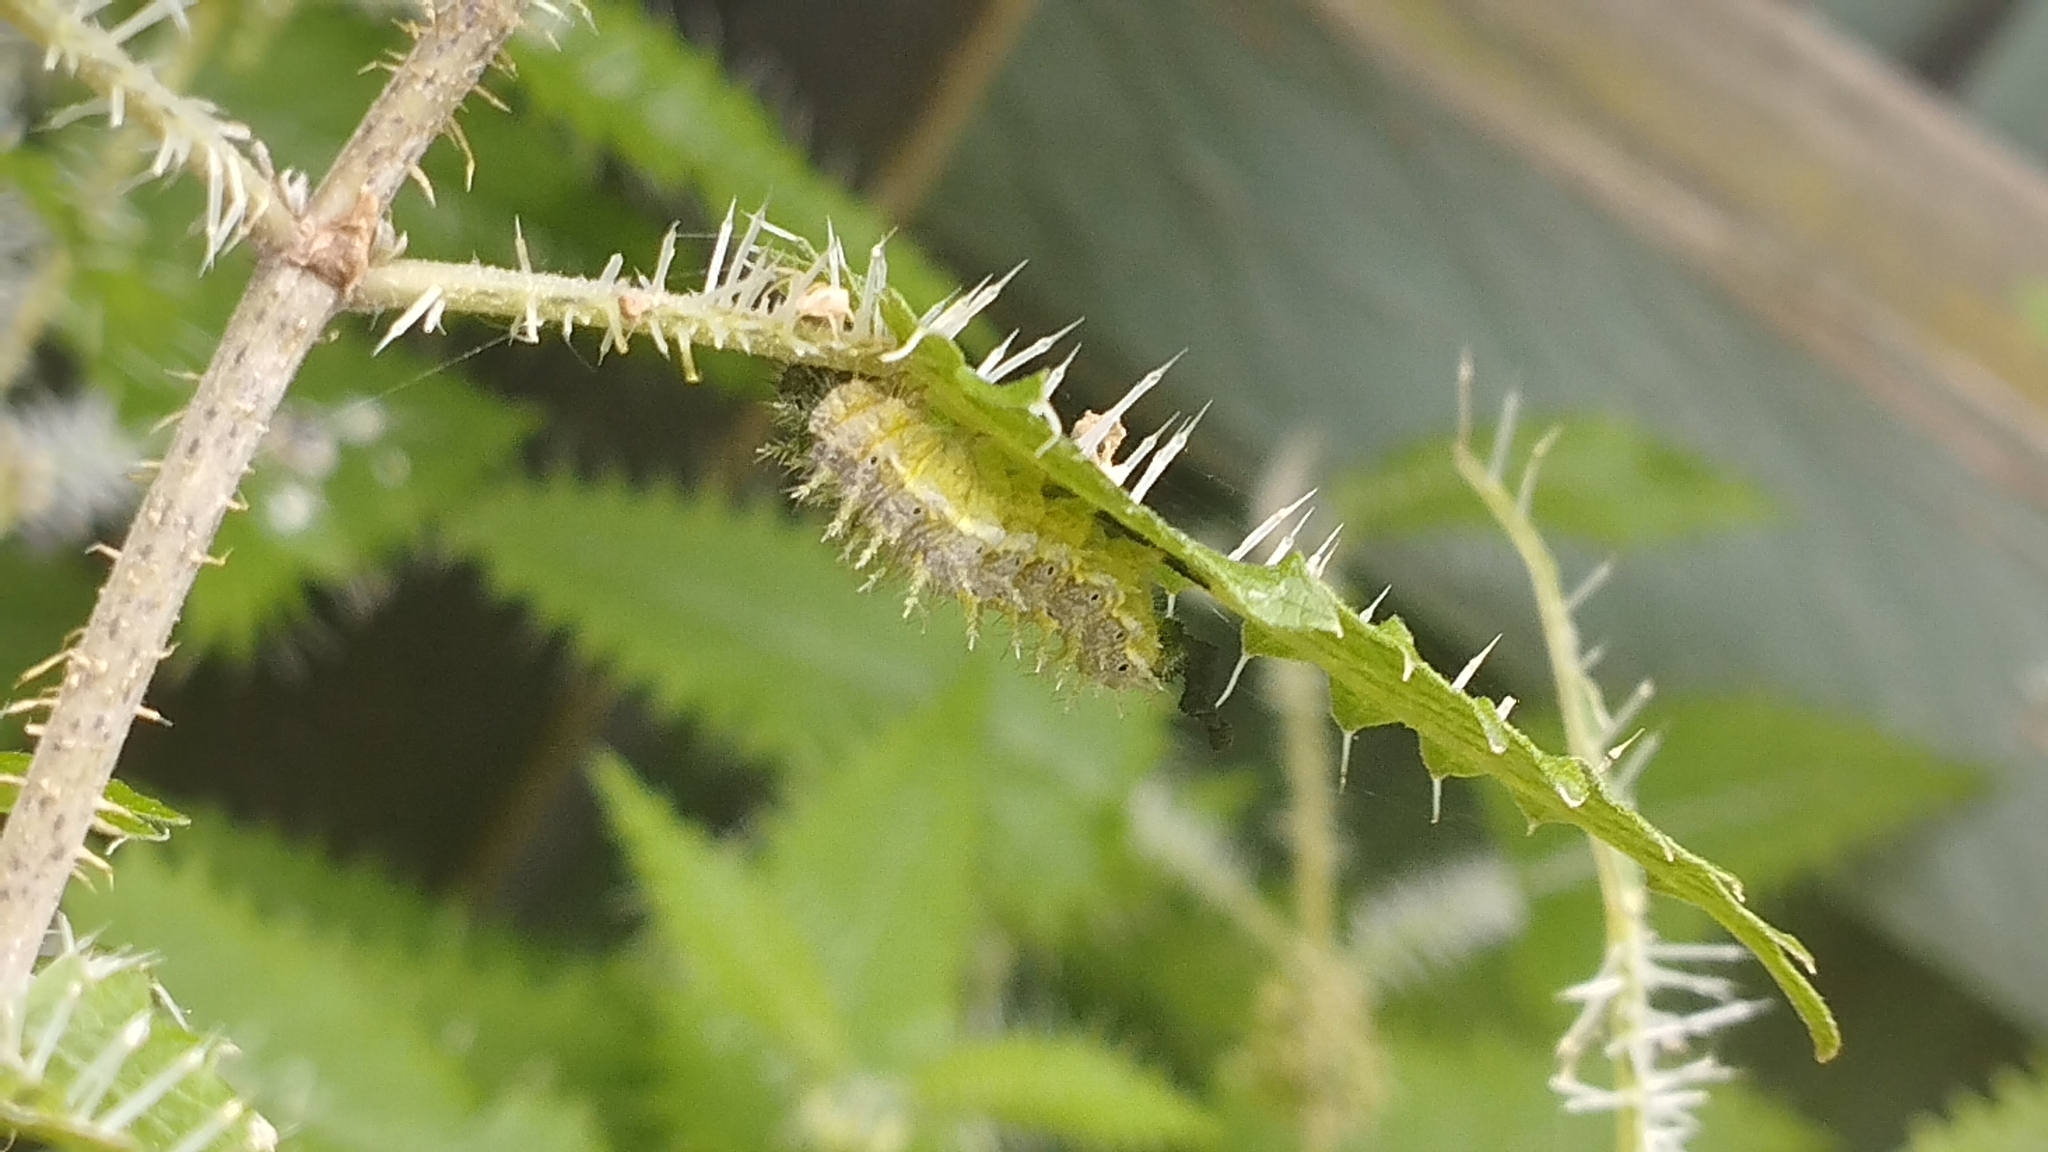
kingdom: Animalia
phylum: Arthropoda
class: Insecta
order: Lepidoptera
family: Nymphalidae
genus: Vanessa
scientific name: Vanessa gonerilla
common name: New zealand red admiral
